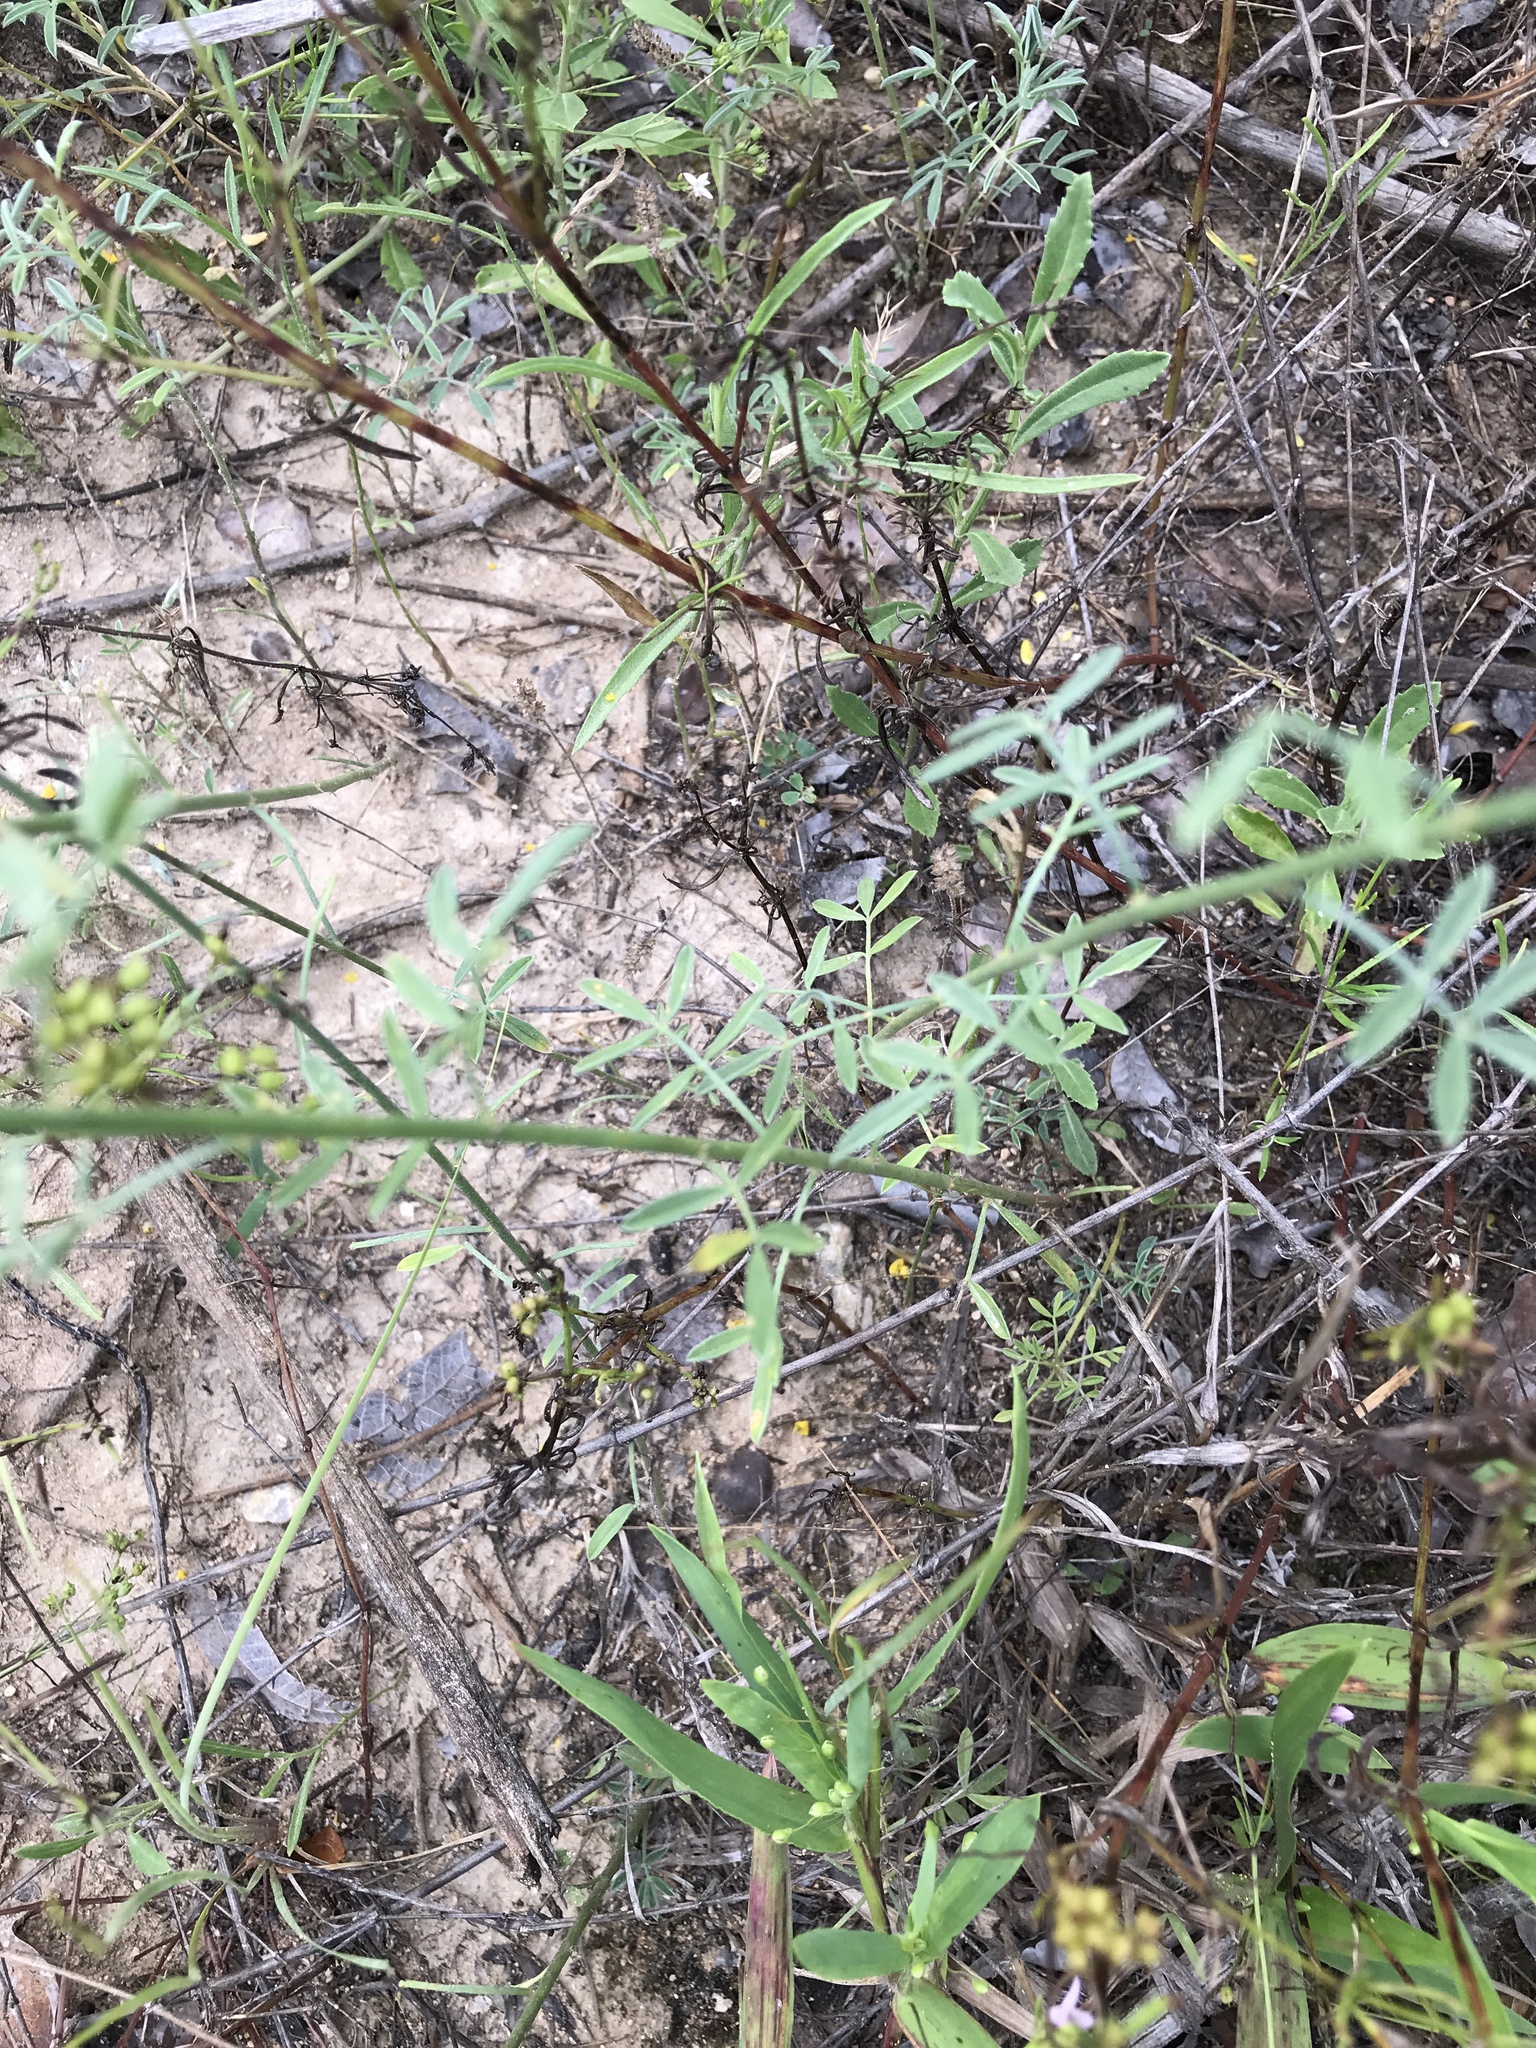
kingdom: Plantae
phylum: Tracheophyta
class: Magnoliopsida
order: Fabales
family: Fabaceae
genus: Dalea
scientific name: Dalea aurea
